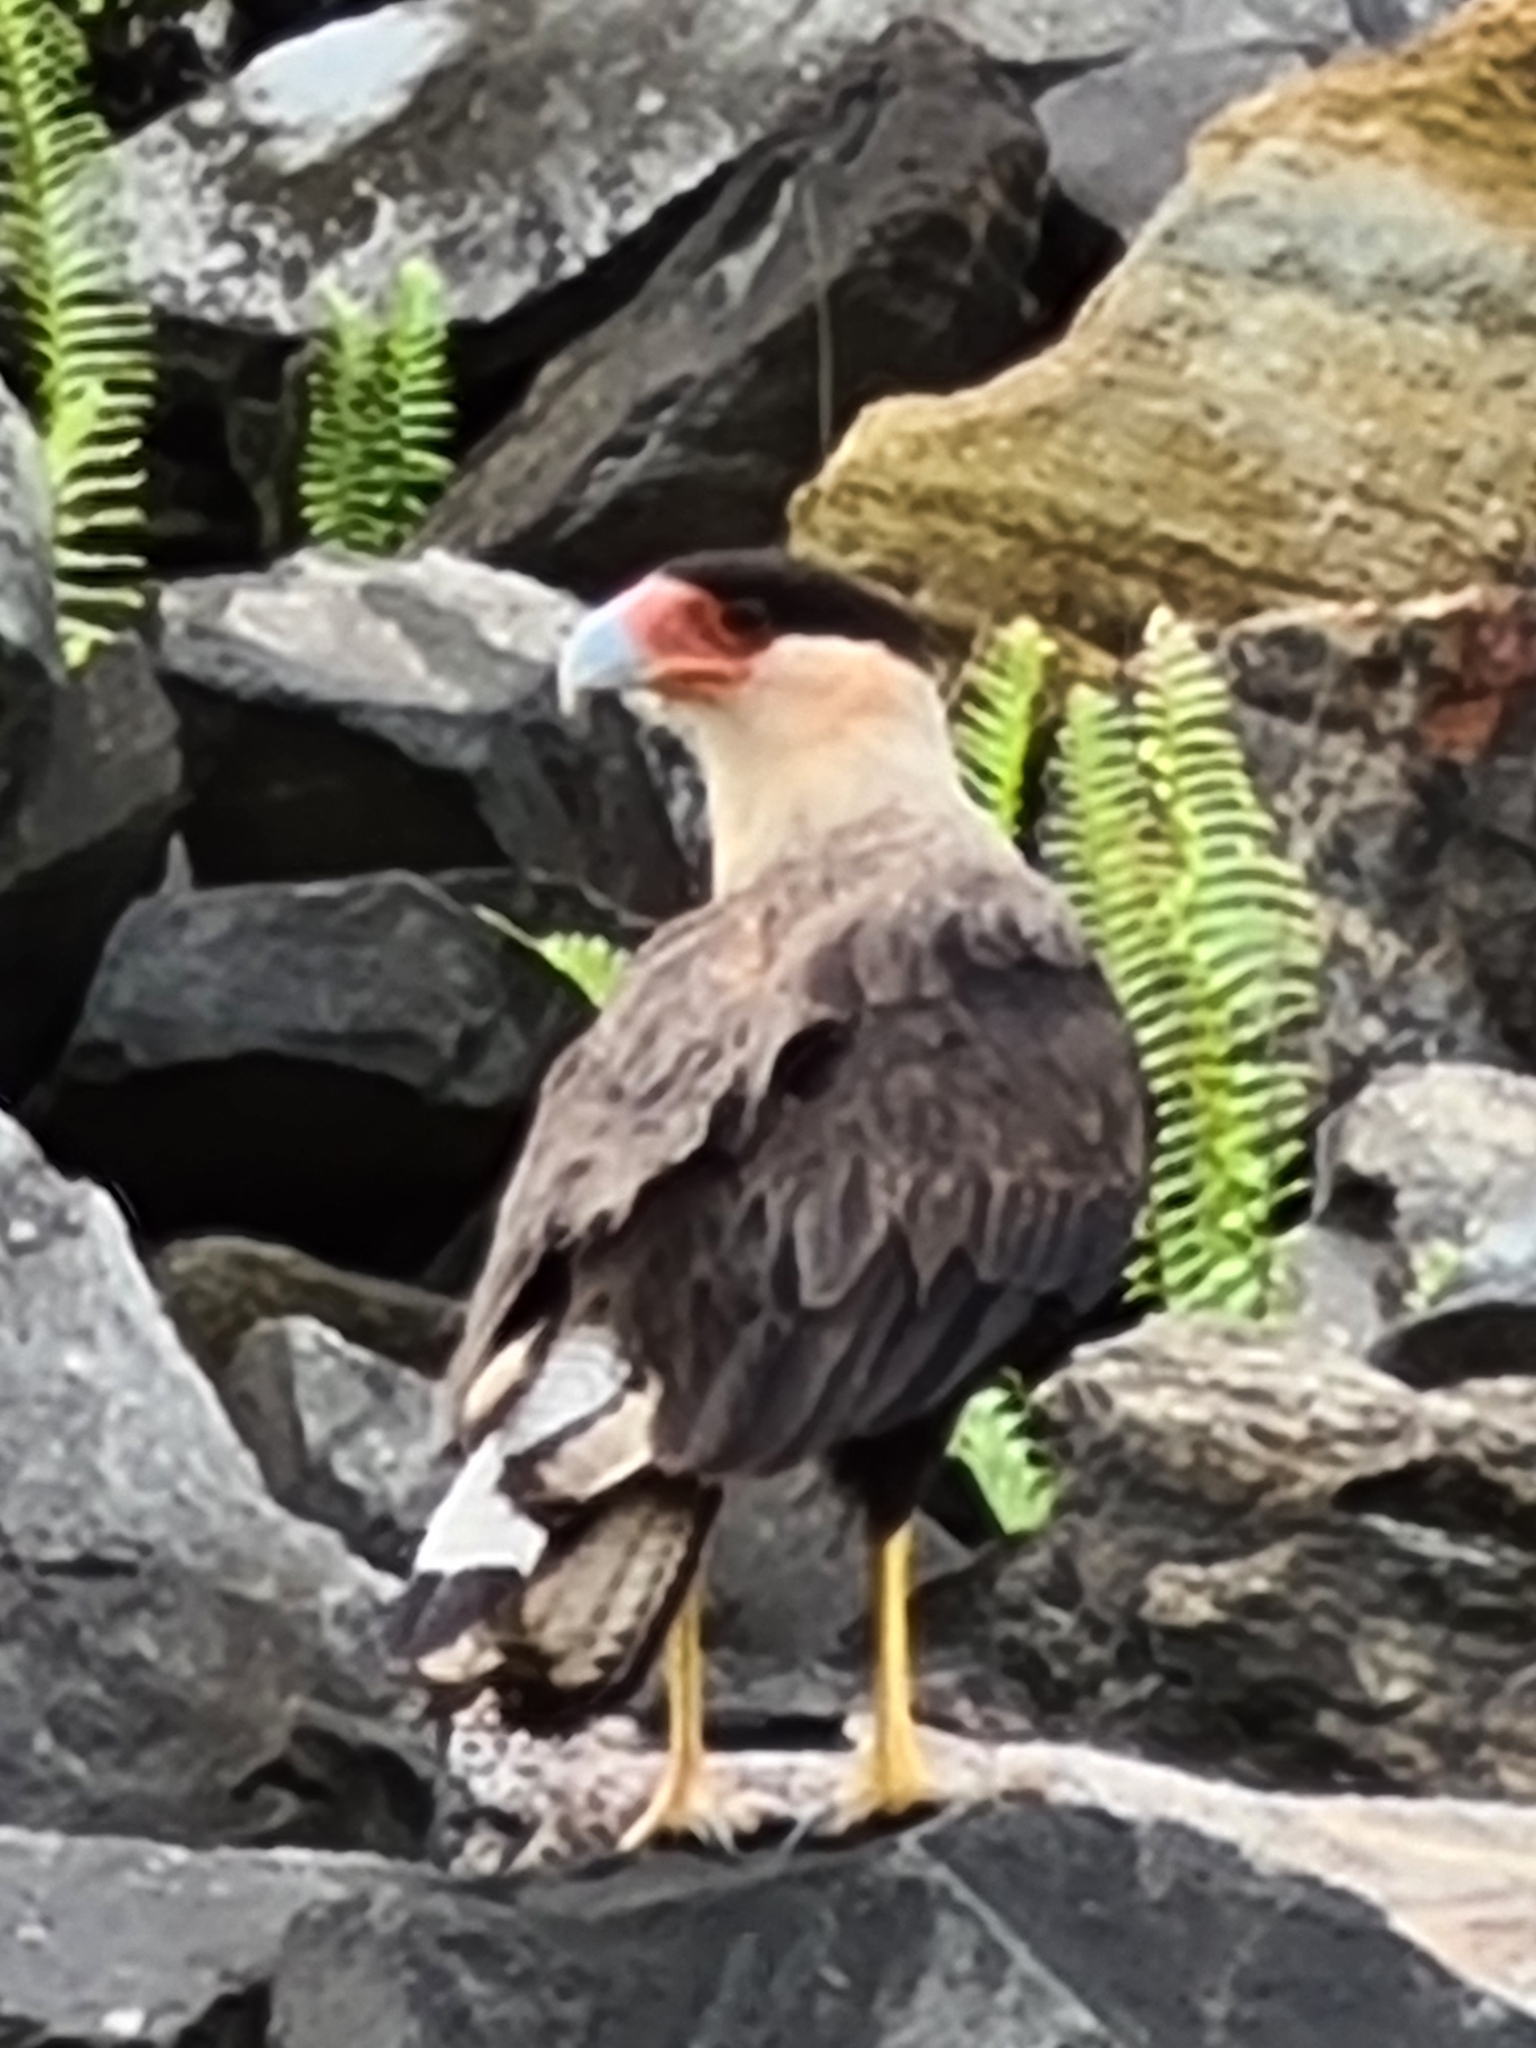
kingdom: Animalia
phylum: Chordata
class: Aves
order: Falconiformes
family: Falconidae
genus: Caracara
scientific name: Caracara plancus
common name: Southern caracara
